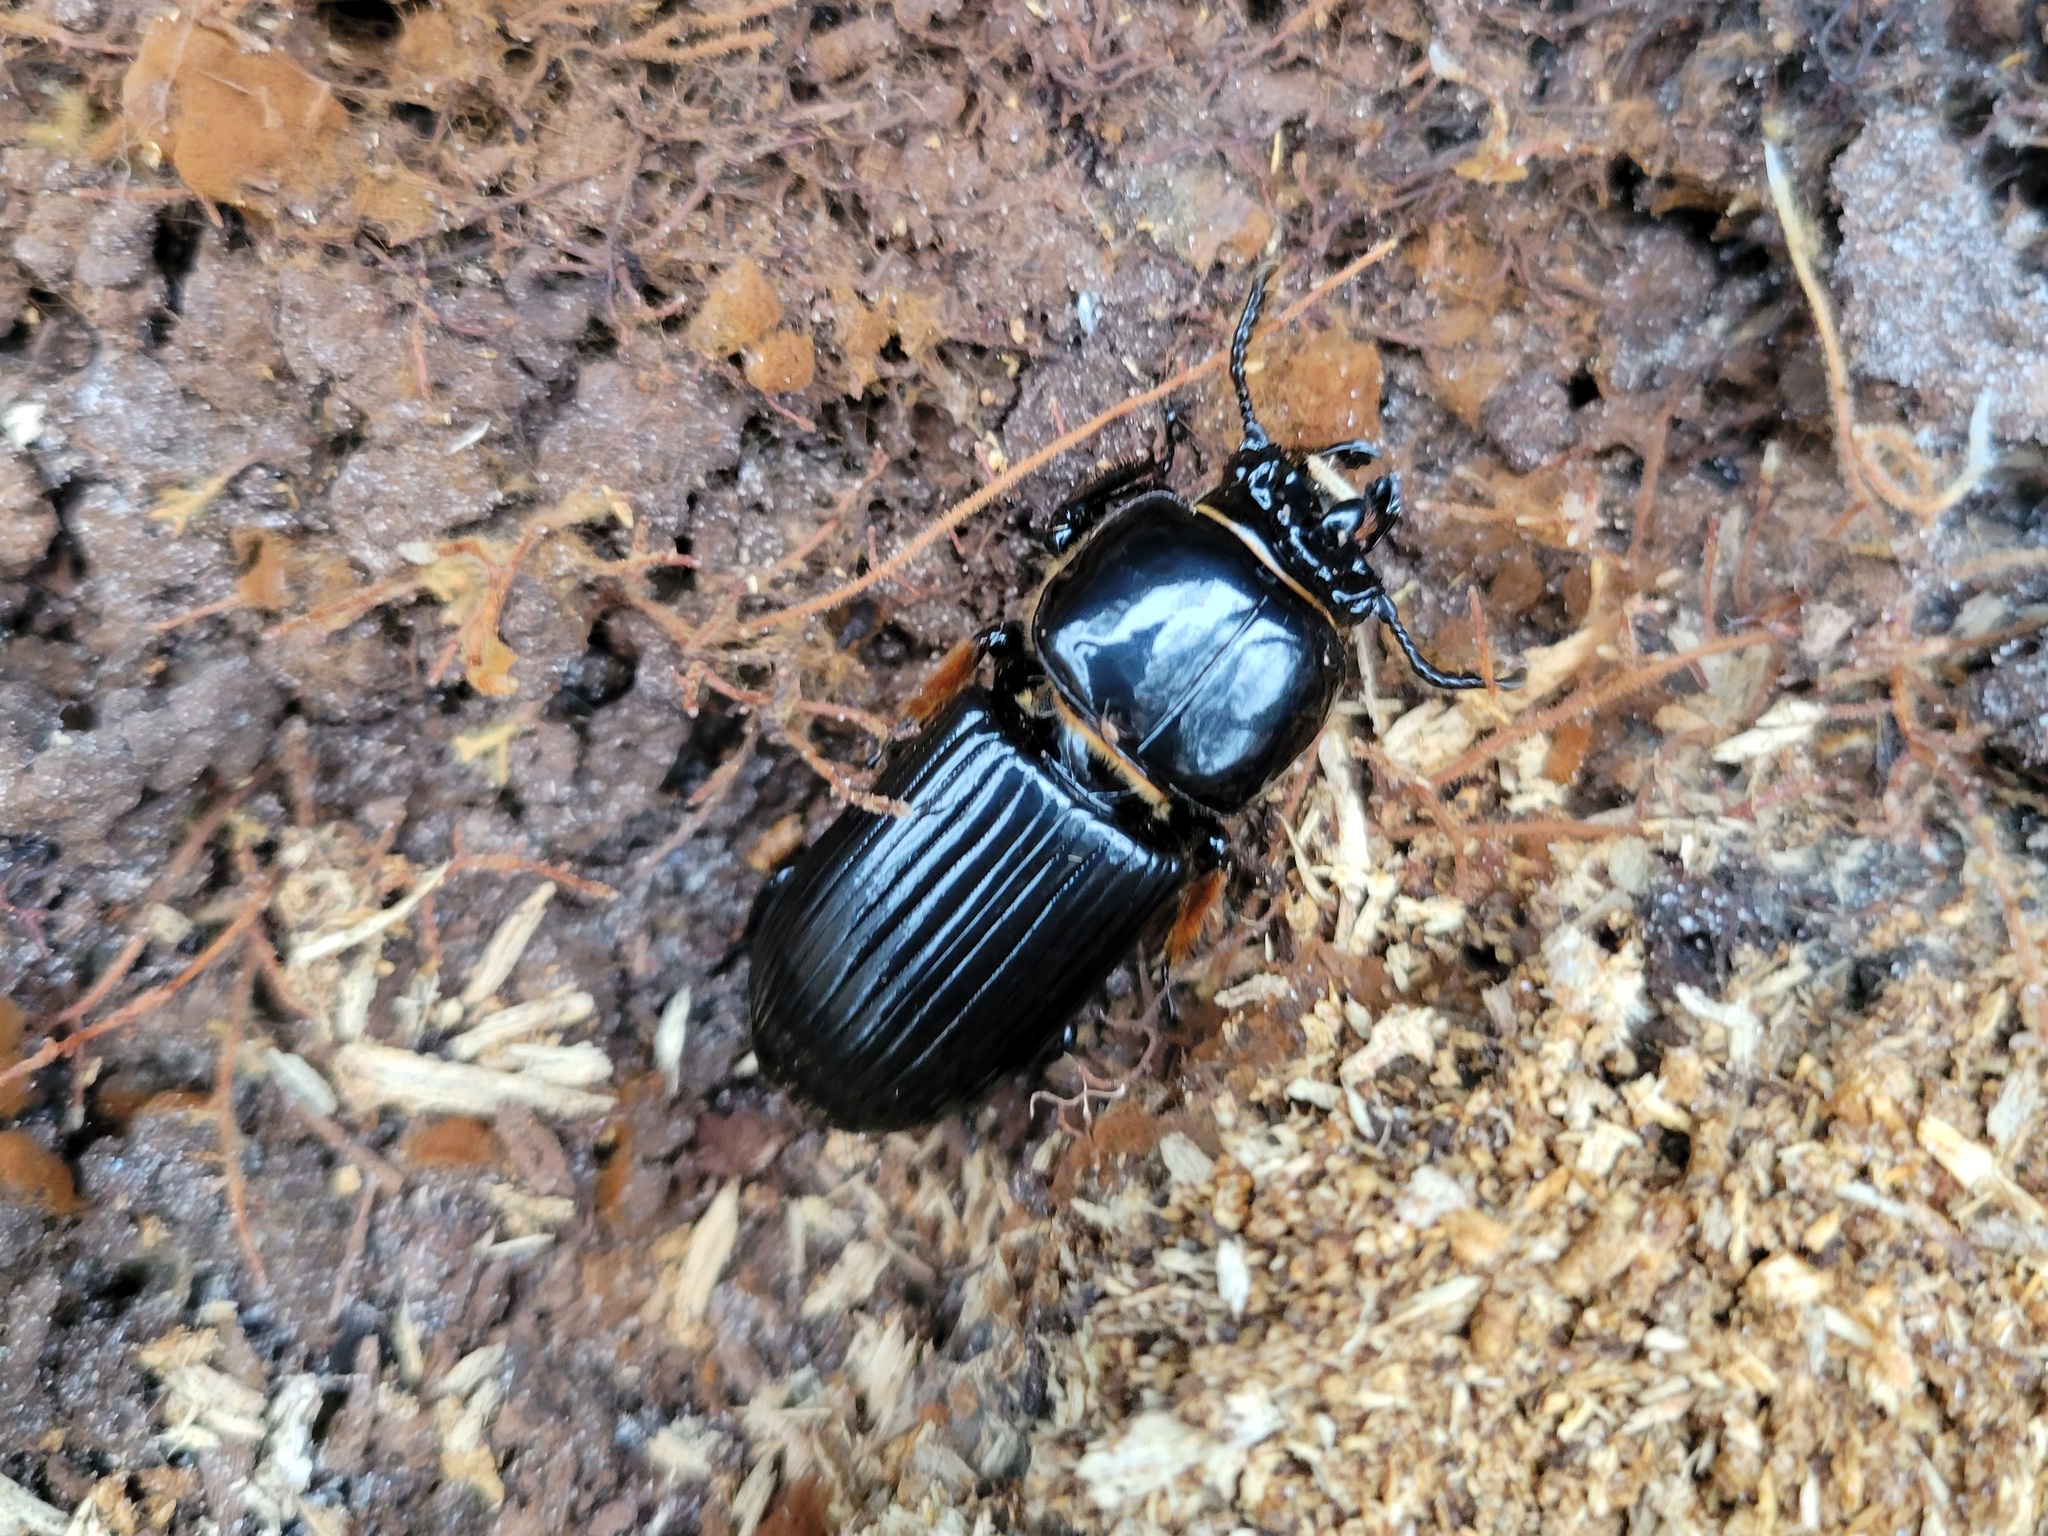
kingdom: Animalia
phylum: Arthropoda
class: Insecta
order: Coleoptera
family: Passalidae
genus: Odontotaenius
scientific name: Odontotaenius disjunctus
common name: Patent leather beetle
